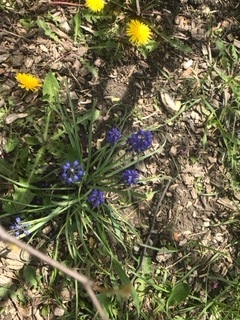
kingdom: Plantae
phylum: Tracheophyta
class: Liliopsida
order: Asparagales
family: Asparagaceae
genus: Muscari
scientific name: Muscari botryoides
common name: Compact grape-hyacinth
